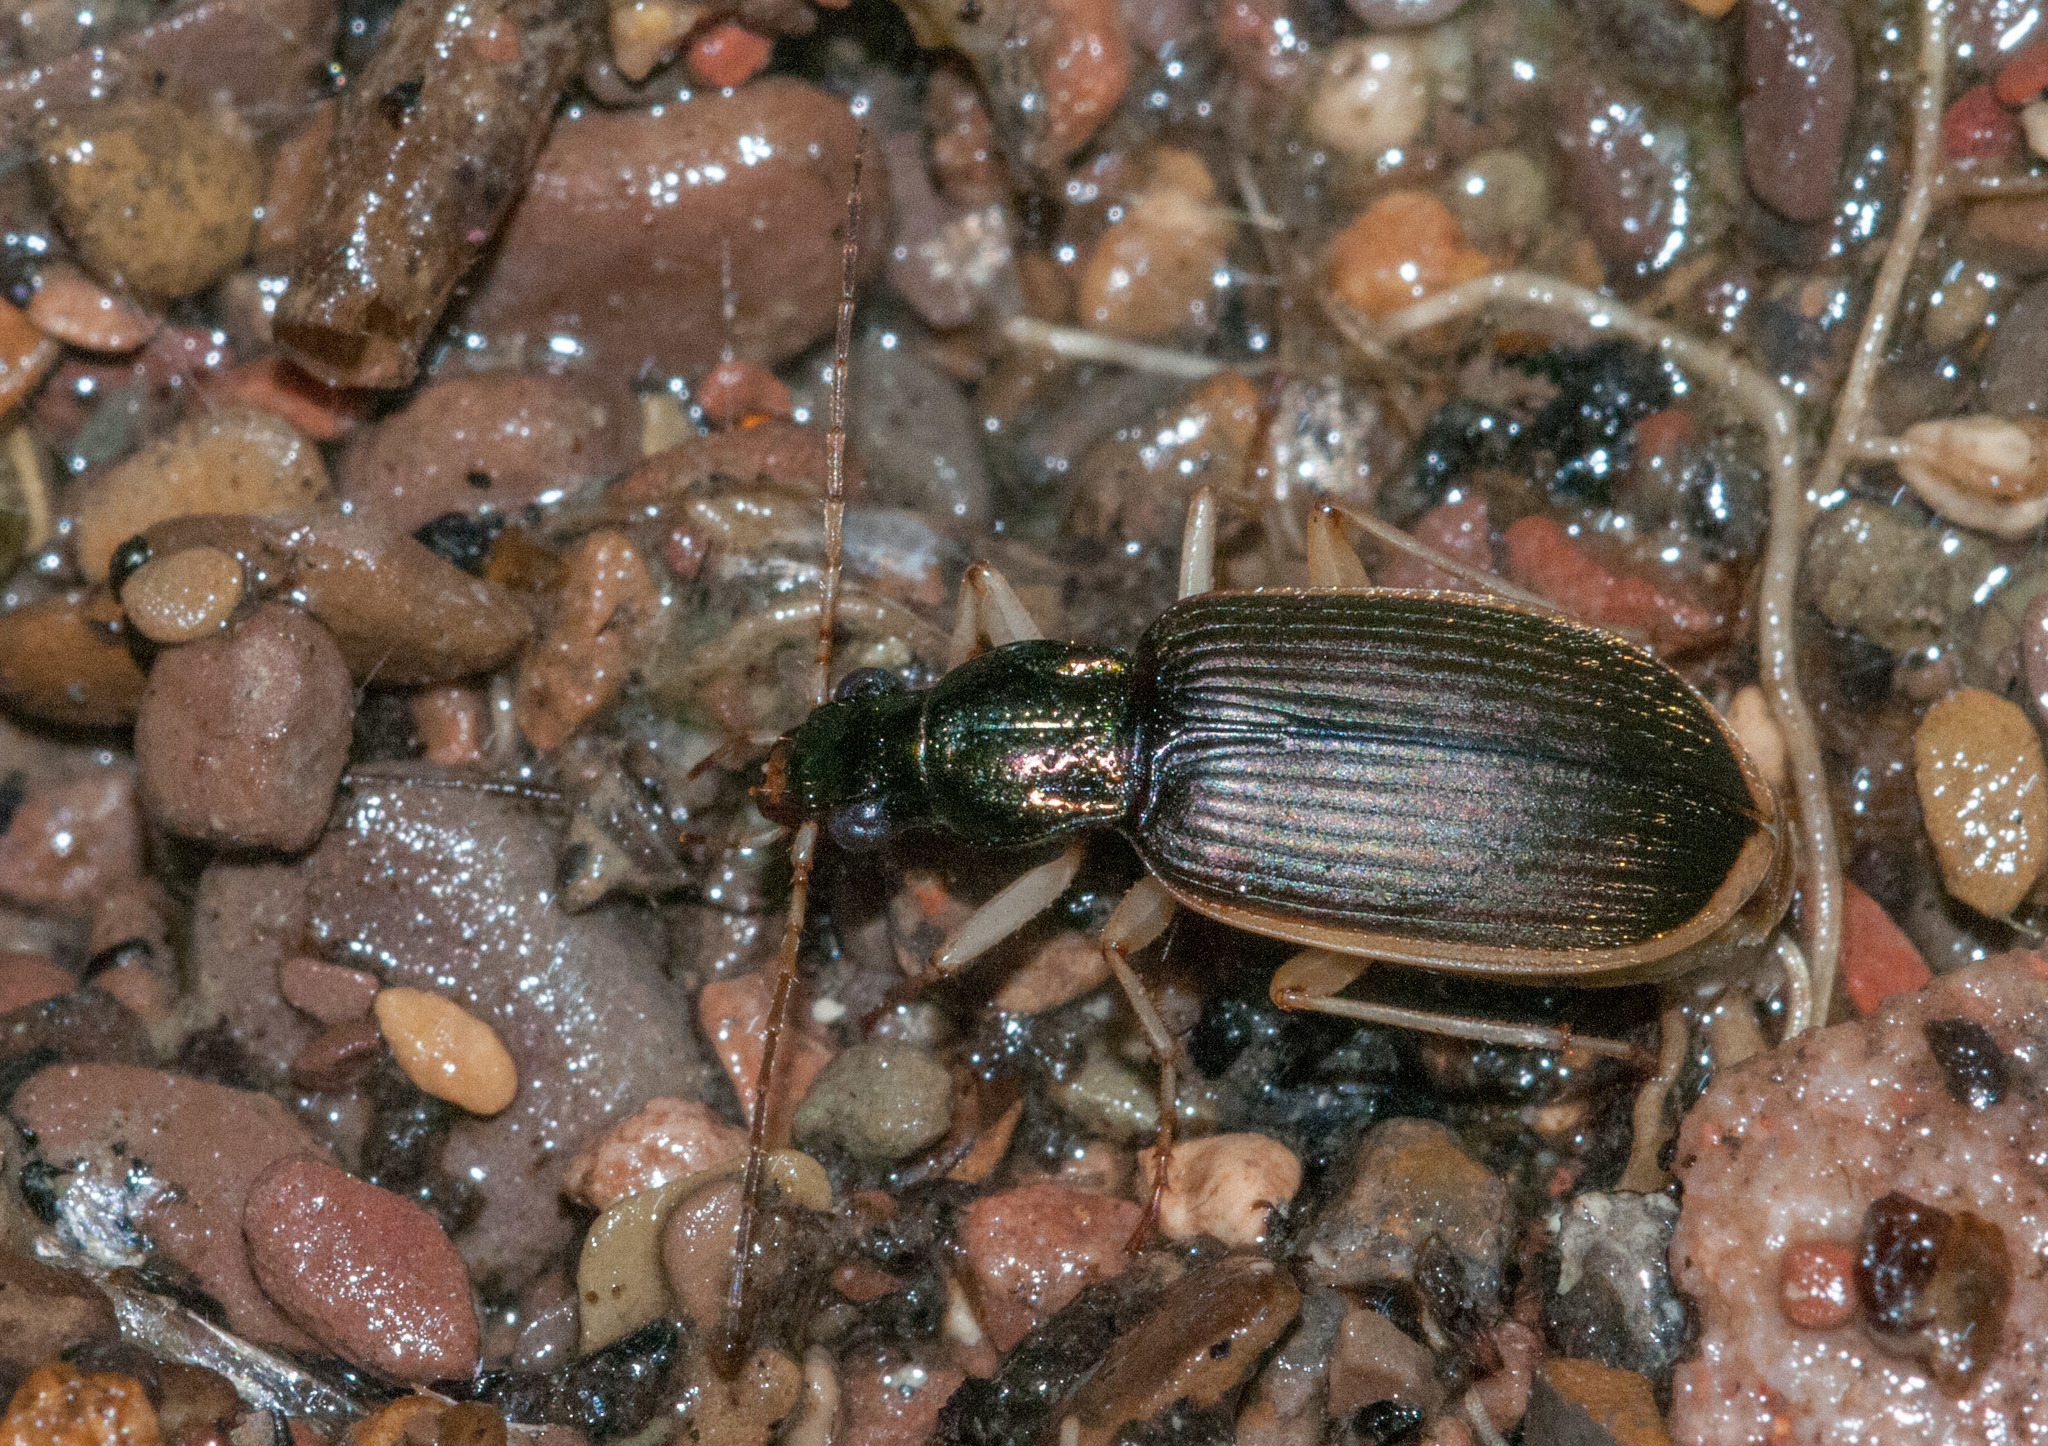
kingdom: Animalia
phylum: Arthropoda
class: Insecta
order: Coleoptera
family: Carabidae
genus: Chlaenius
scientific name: Chlaenius darlingensis
